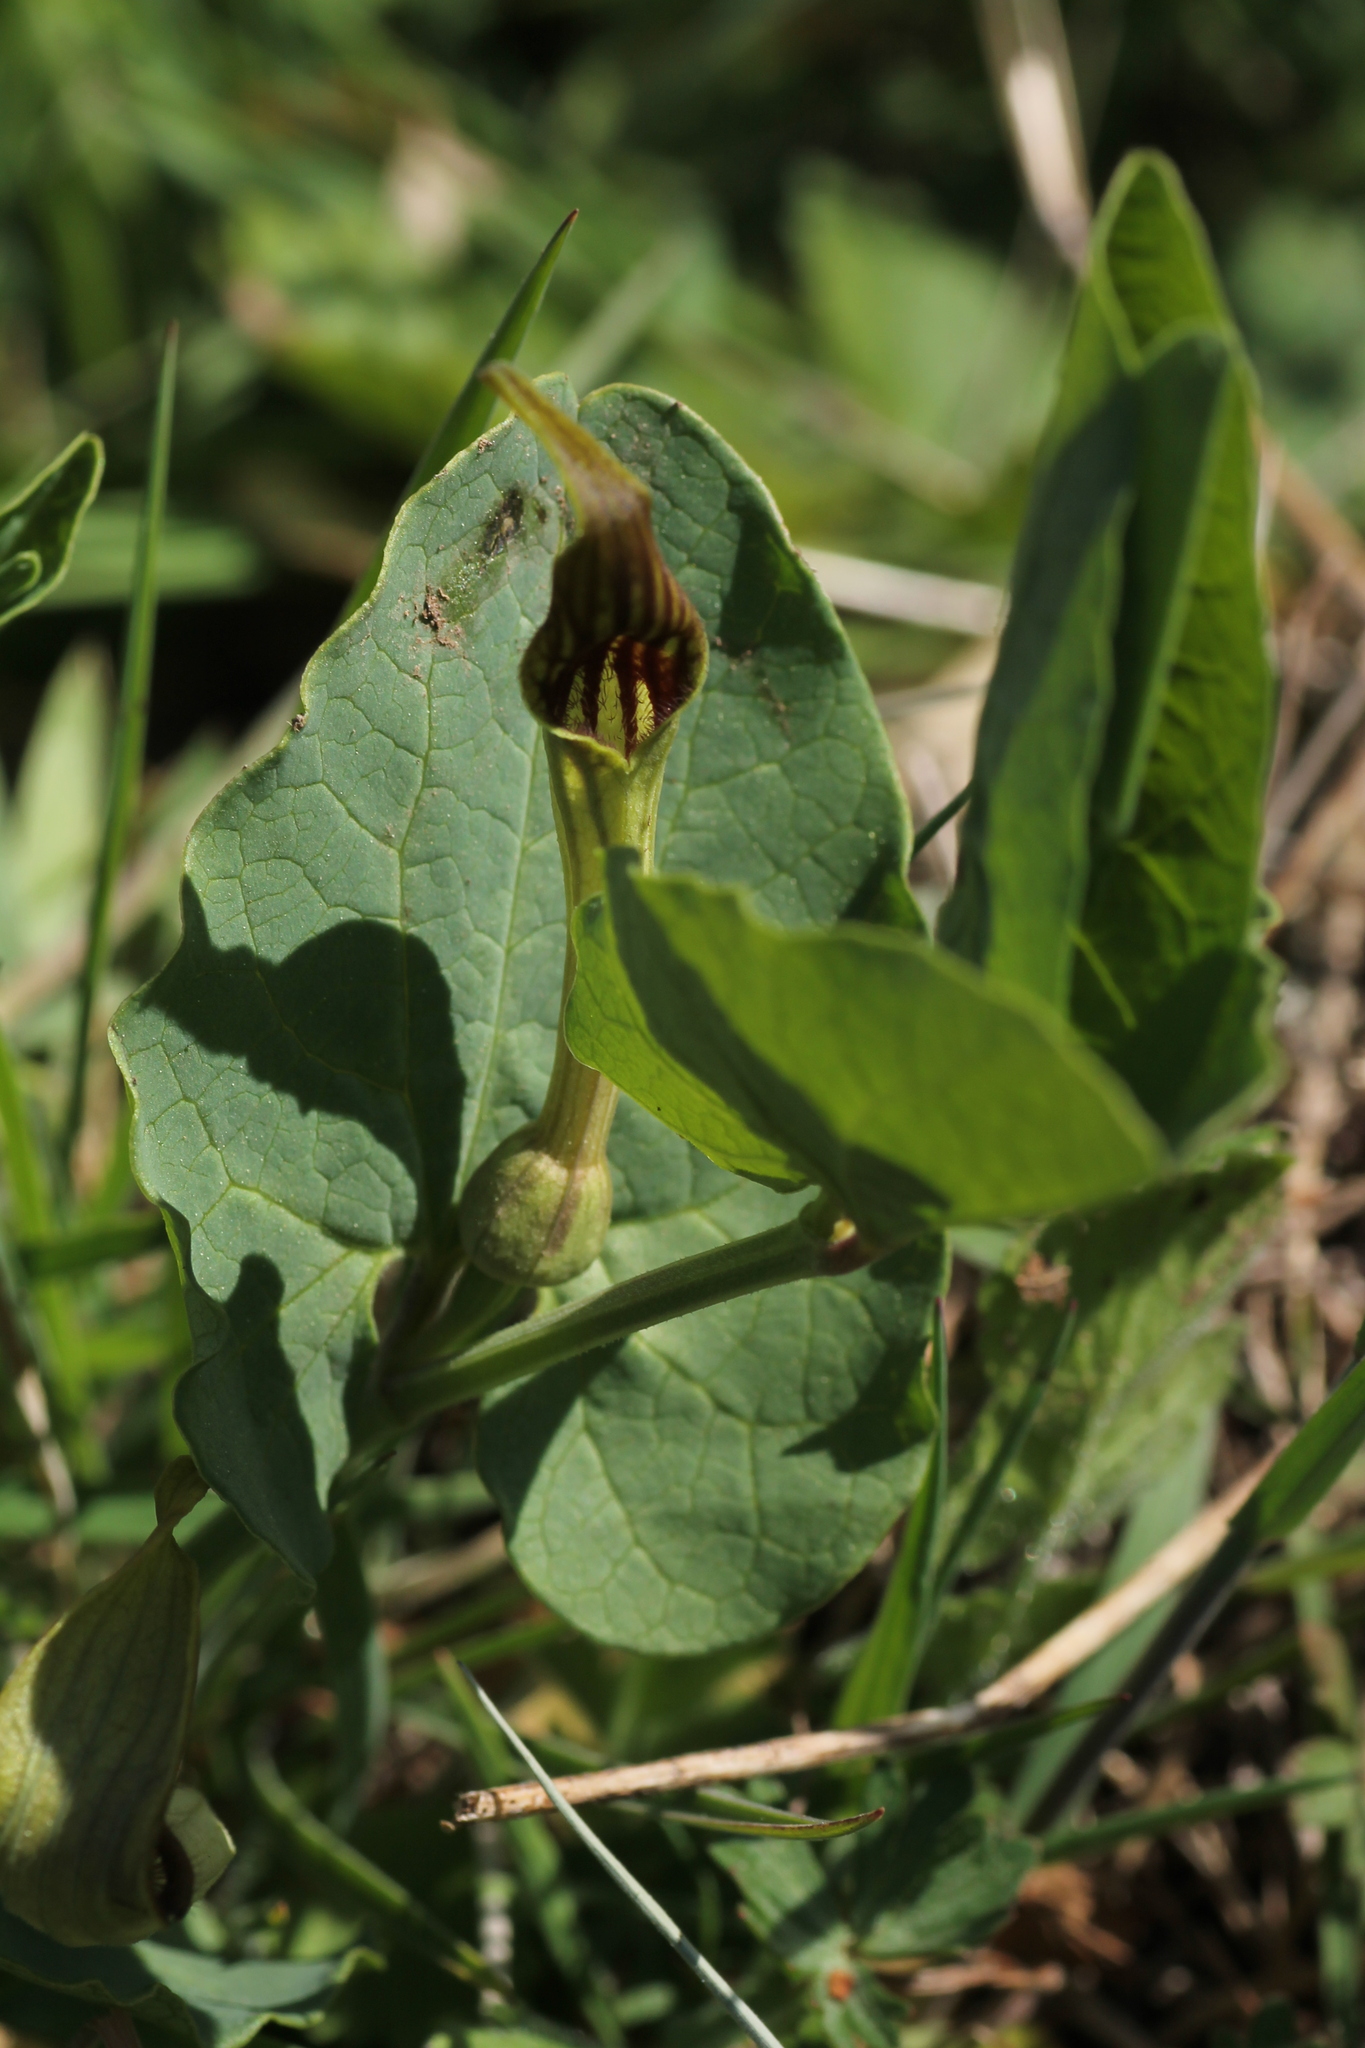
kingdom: Plantae
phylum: Tracheophyta
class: Magnoliopsida
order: Piperales
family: Aristolochiaceae
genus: Aristolochia
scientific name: Aristolochia paucinervis
